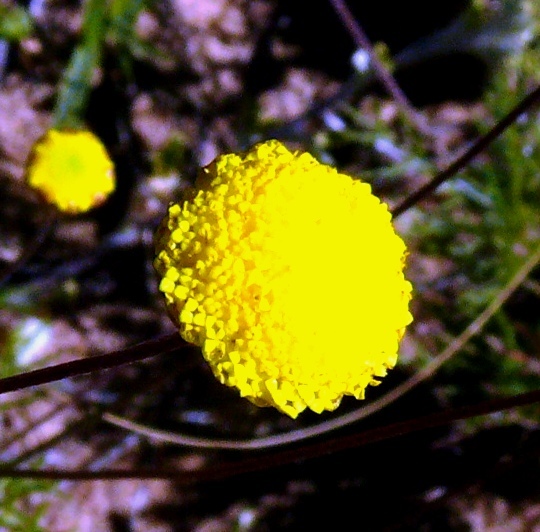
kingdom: Plantae
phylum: Tracheophyta
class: Magnoliopsida
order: Asterales
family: Asteraceae
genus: Cotula
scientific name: Cotula barbata
